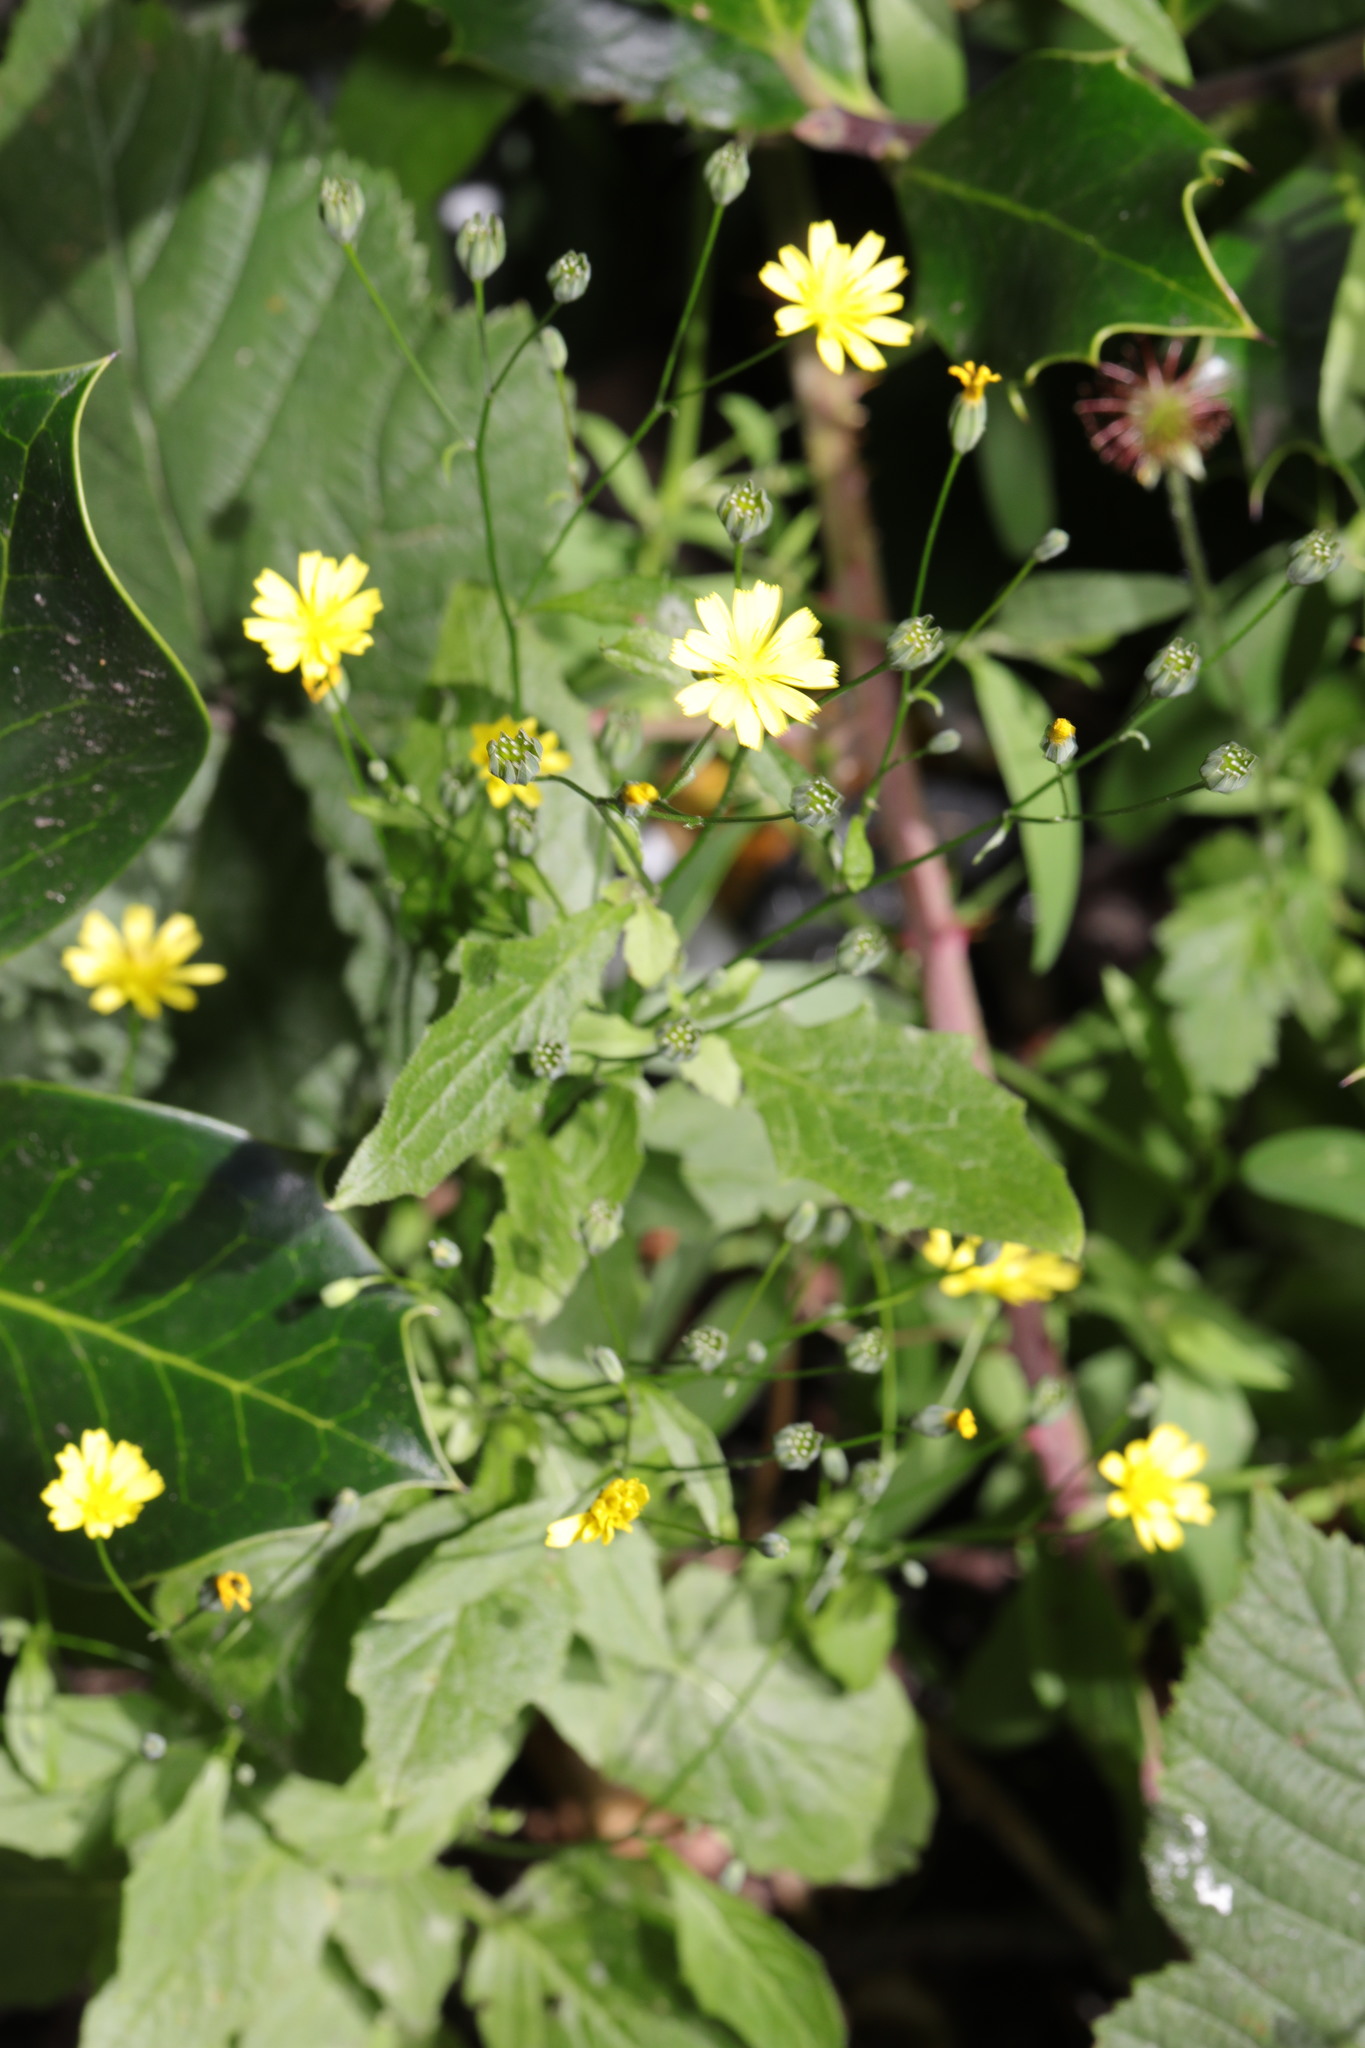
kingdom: Plantae
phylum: Tracheophyta
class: Magnoliopsida
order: Asterales
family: Asteraceae
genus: Lapsana
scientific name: Lapsana communis
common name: Nipplewort
